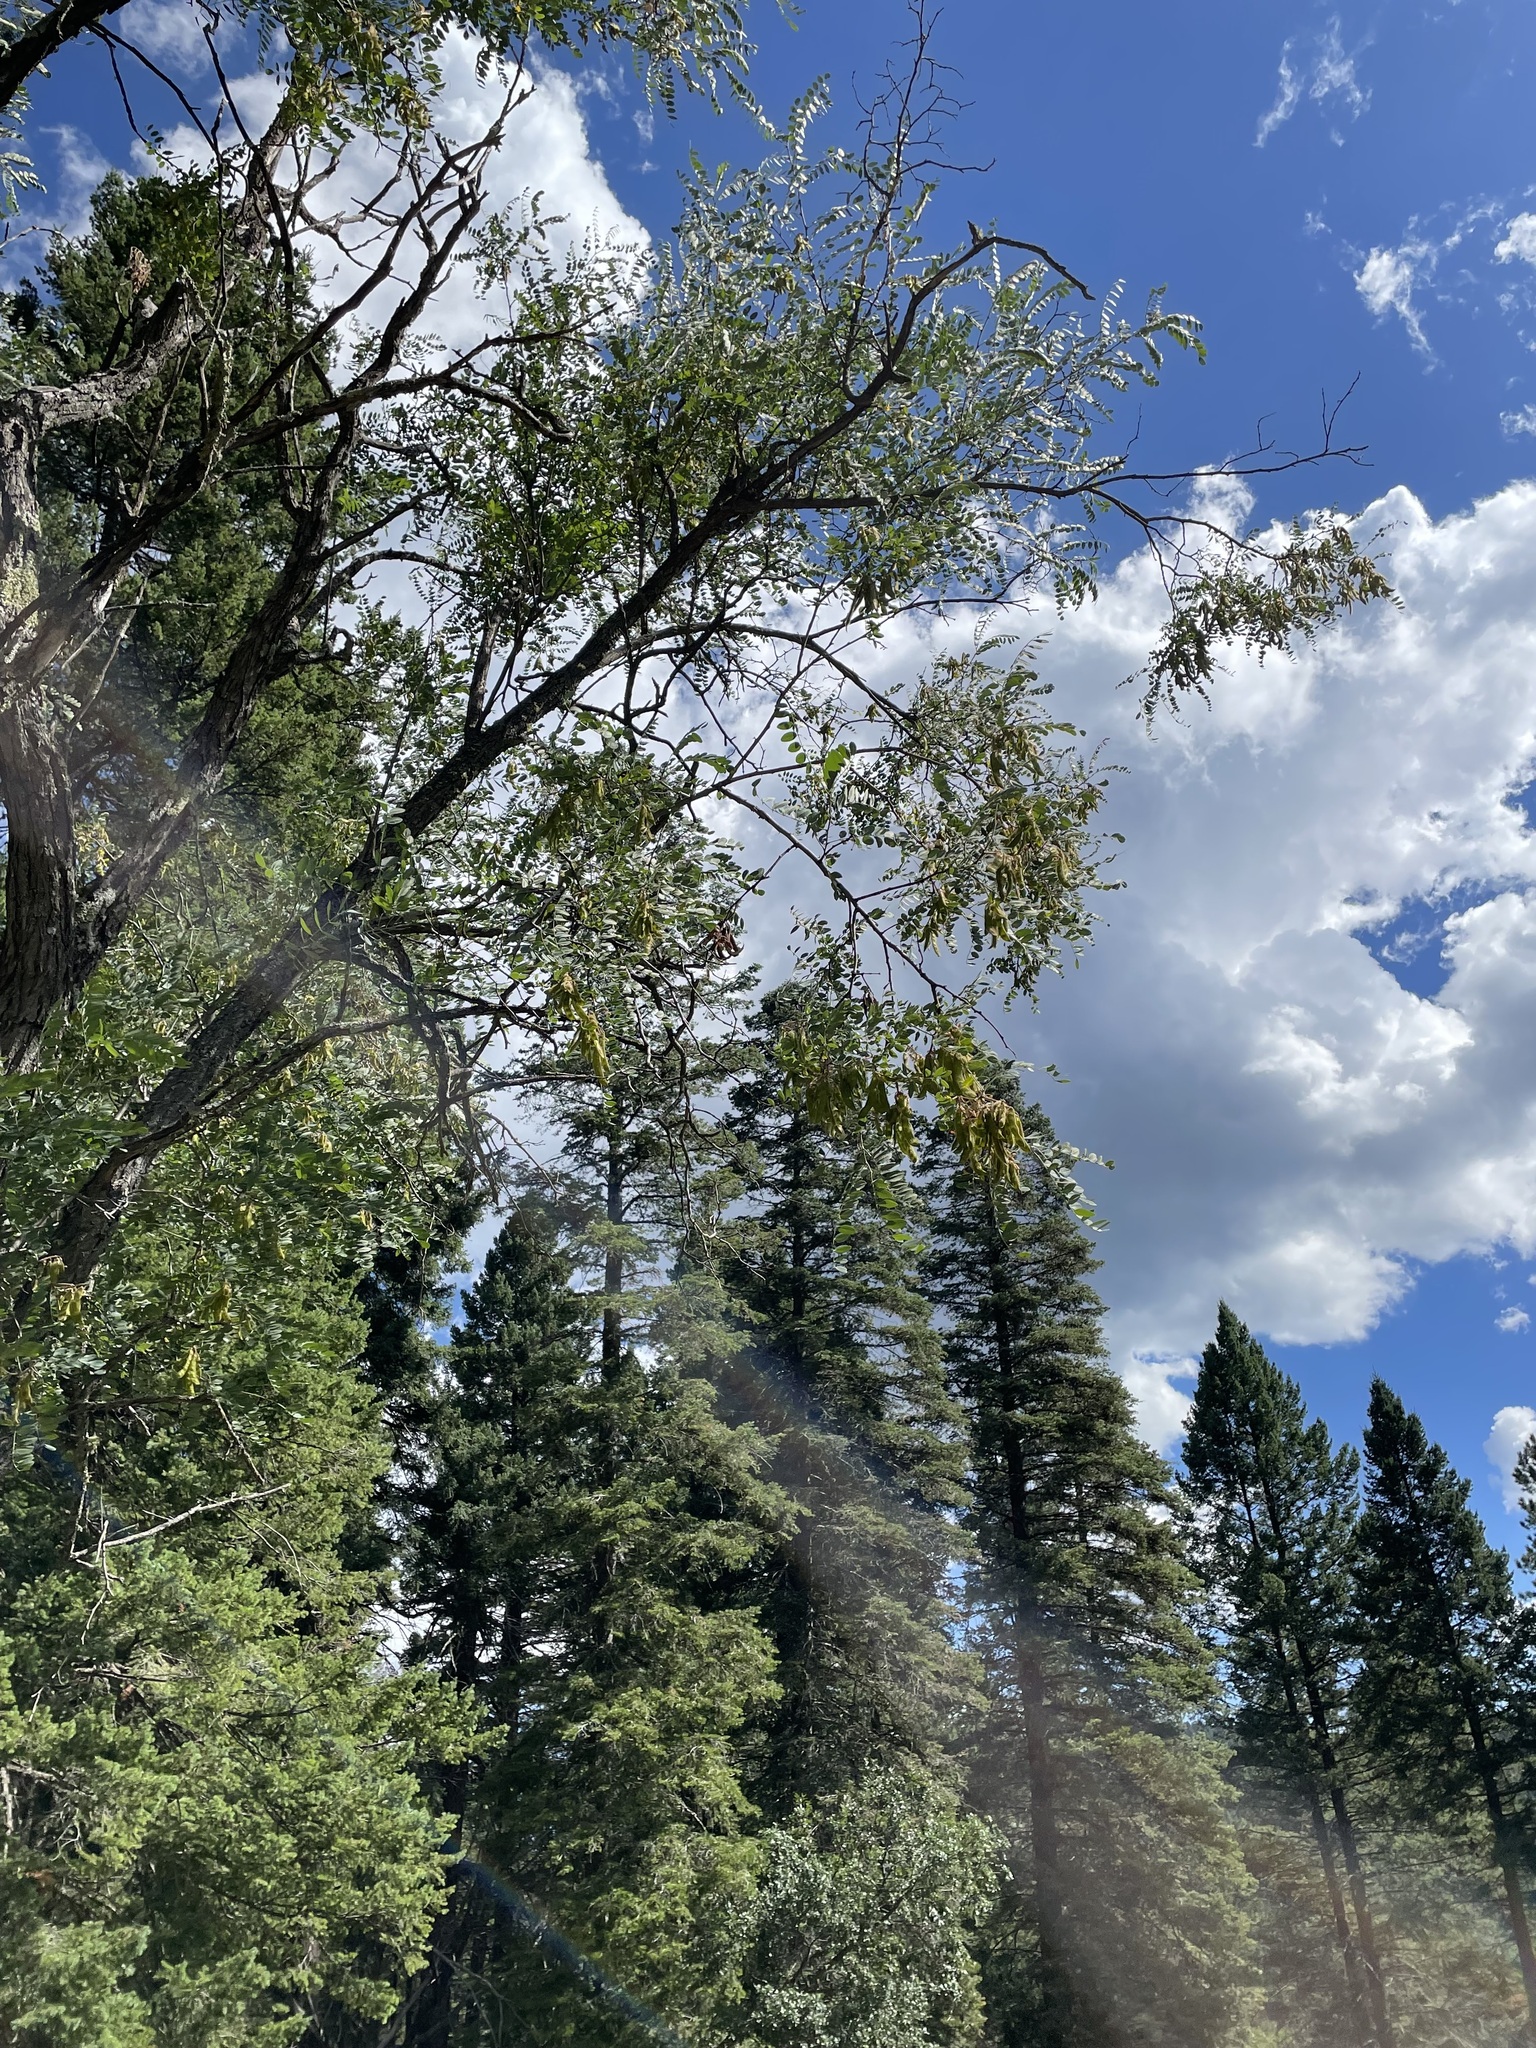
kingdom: Plantae
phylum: Tracheophyta
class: Magnoliopsida
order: Fabales
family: Fabaceae
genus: Robinia
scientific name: Robinia neomexicana
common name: New mexico locust
